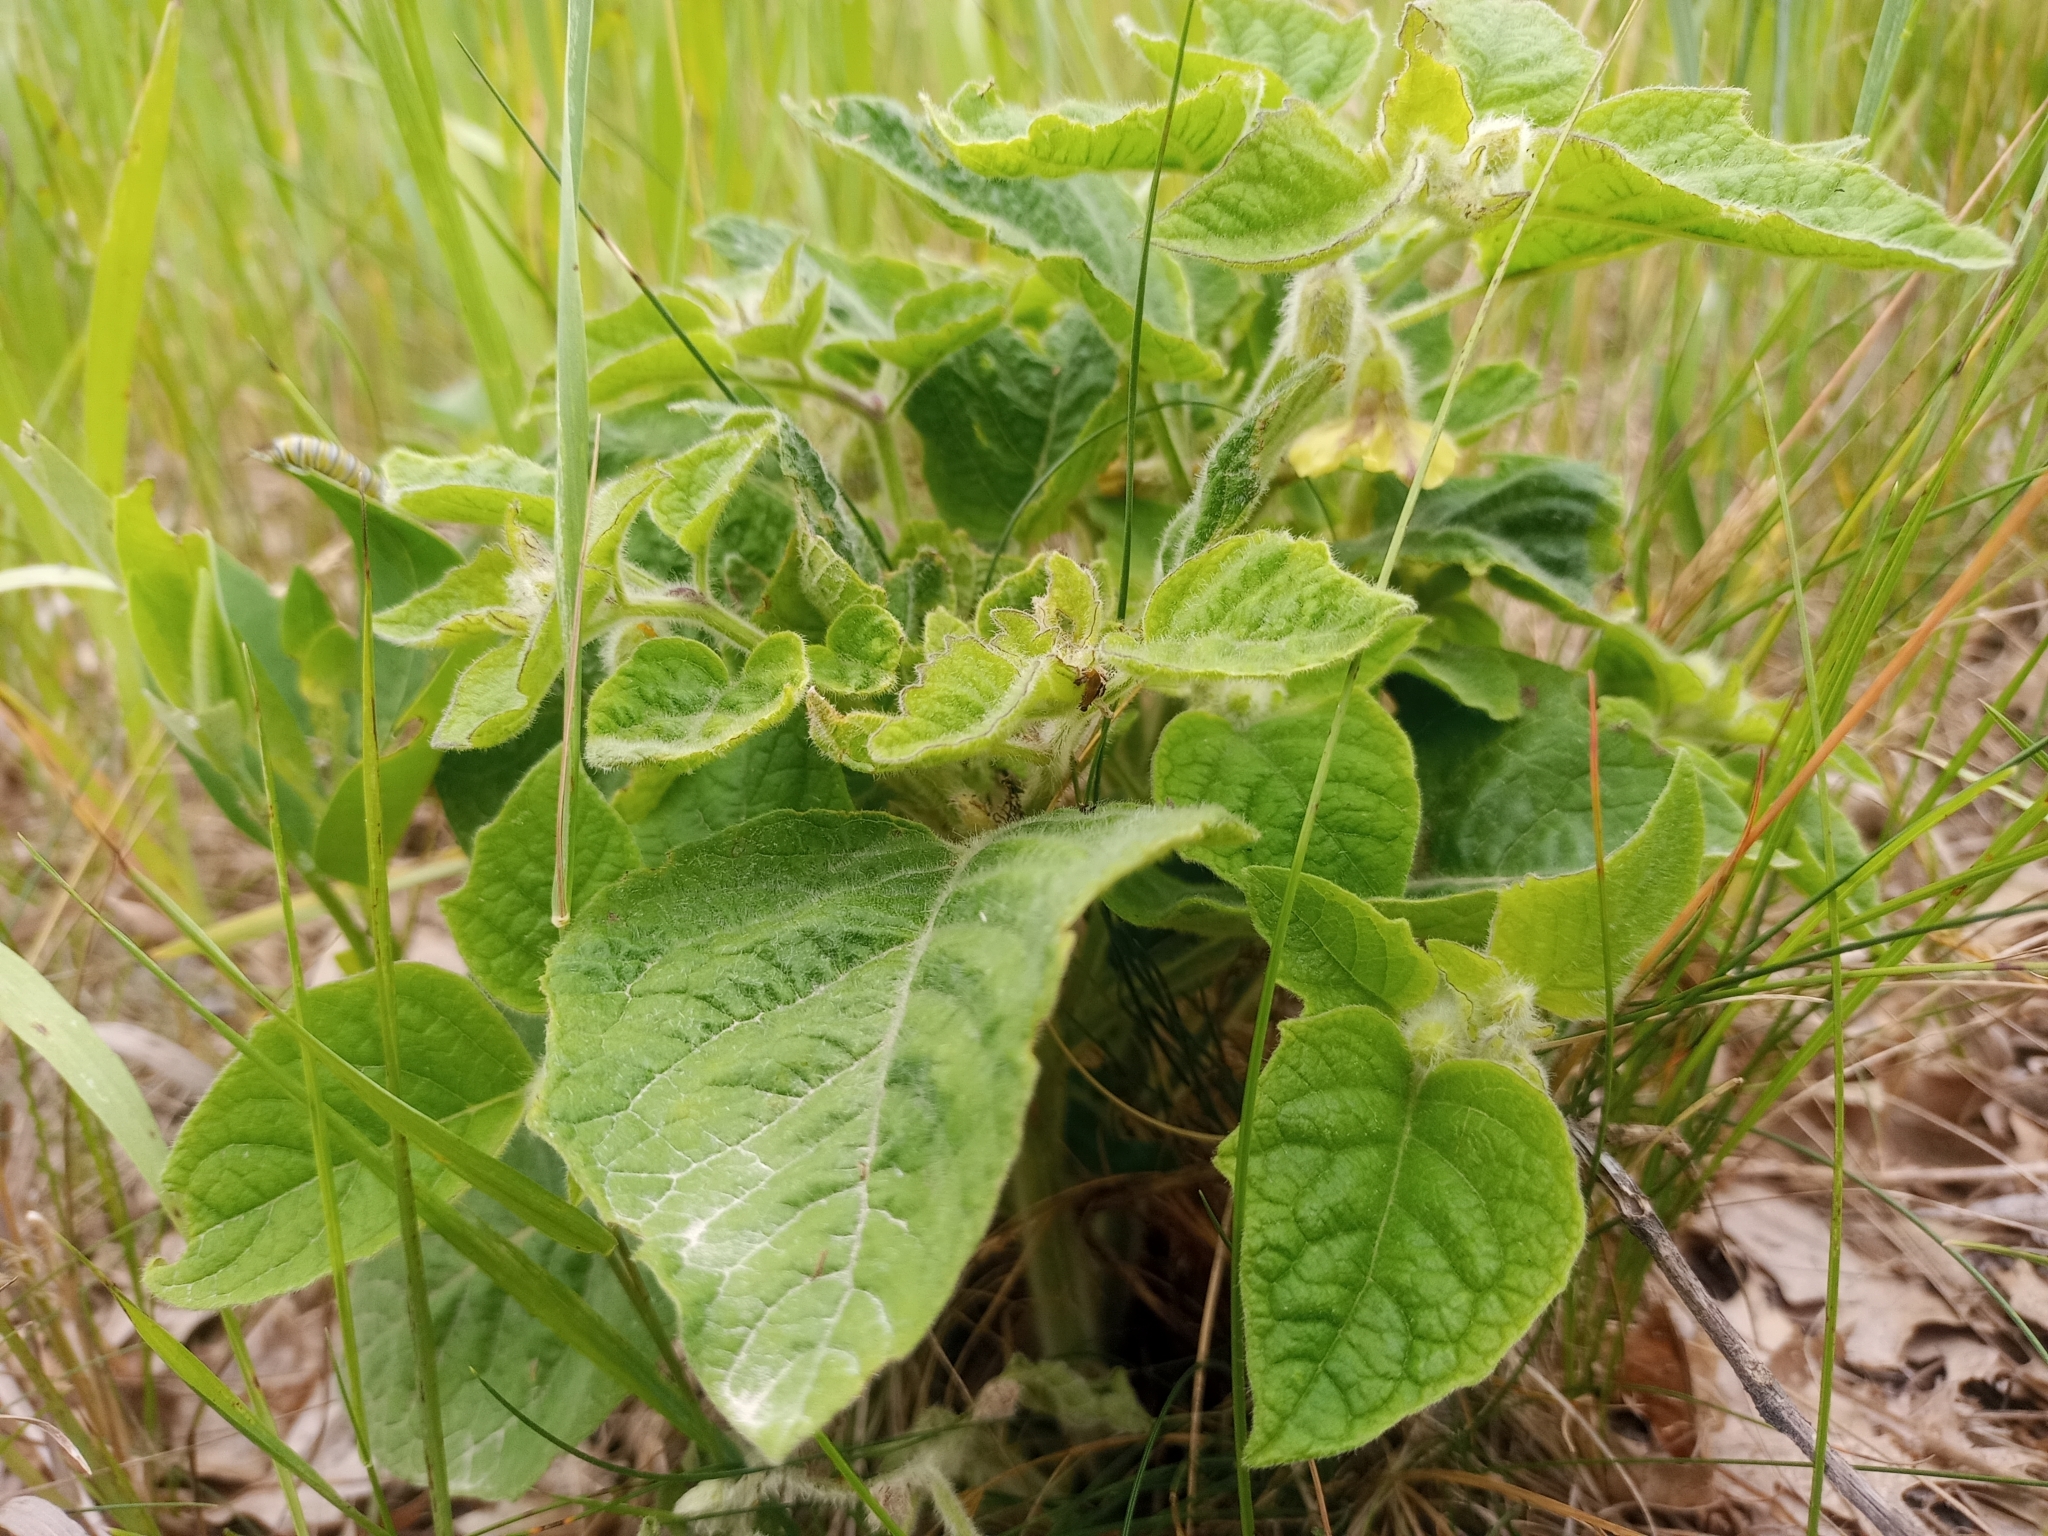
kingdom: Plantae
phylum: Tracheophyta
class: Magnoliopsida
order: Solanales
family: Solanaceae
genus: Physalis
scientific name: Physalis heterophylla
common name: Clammy ground-cherry
